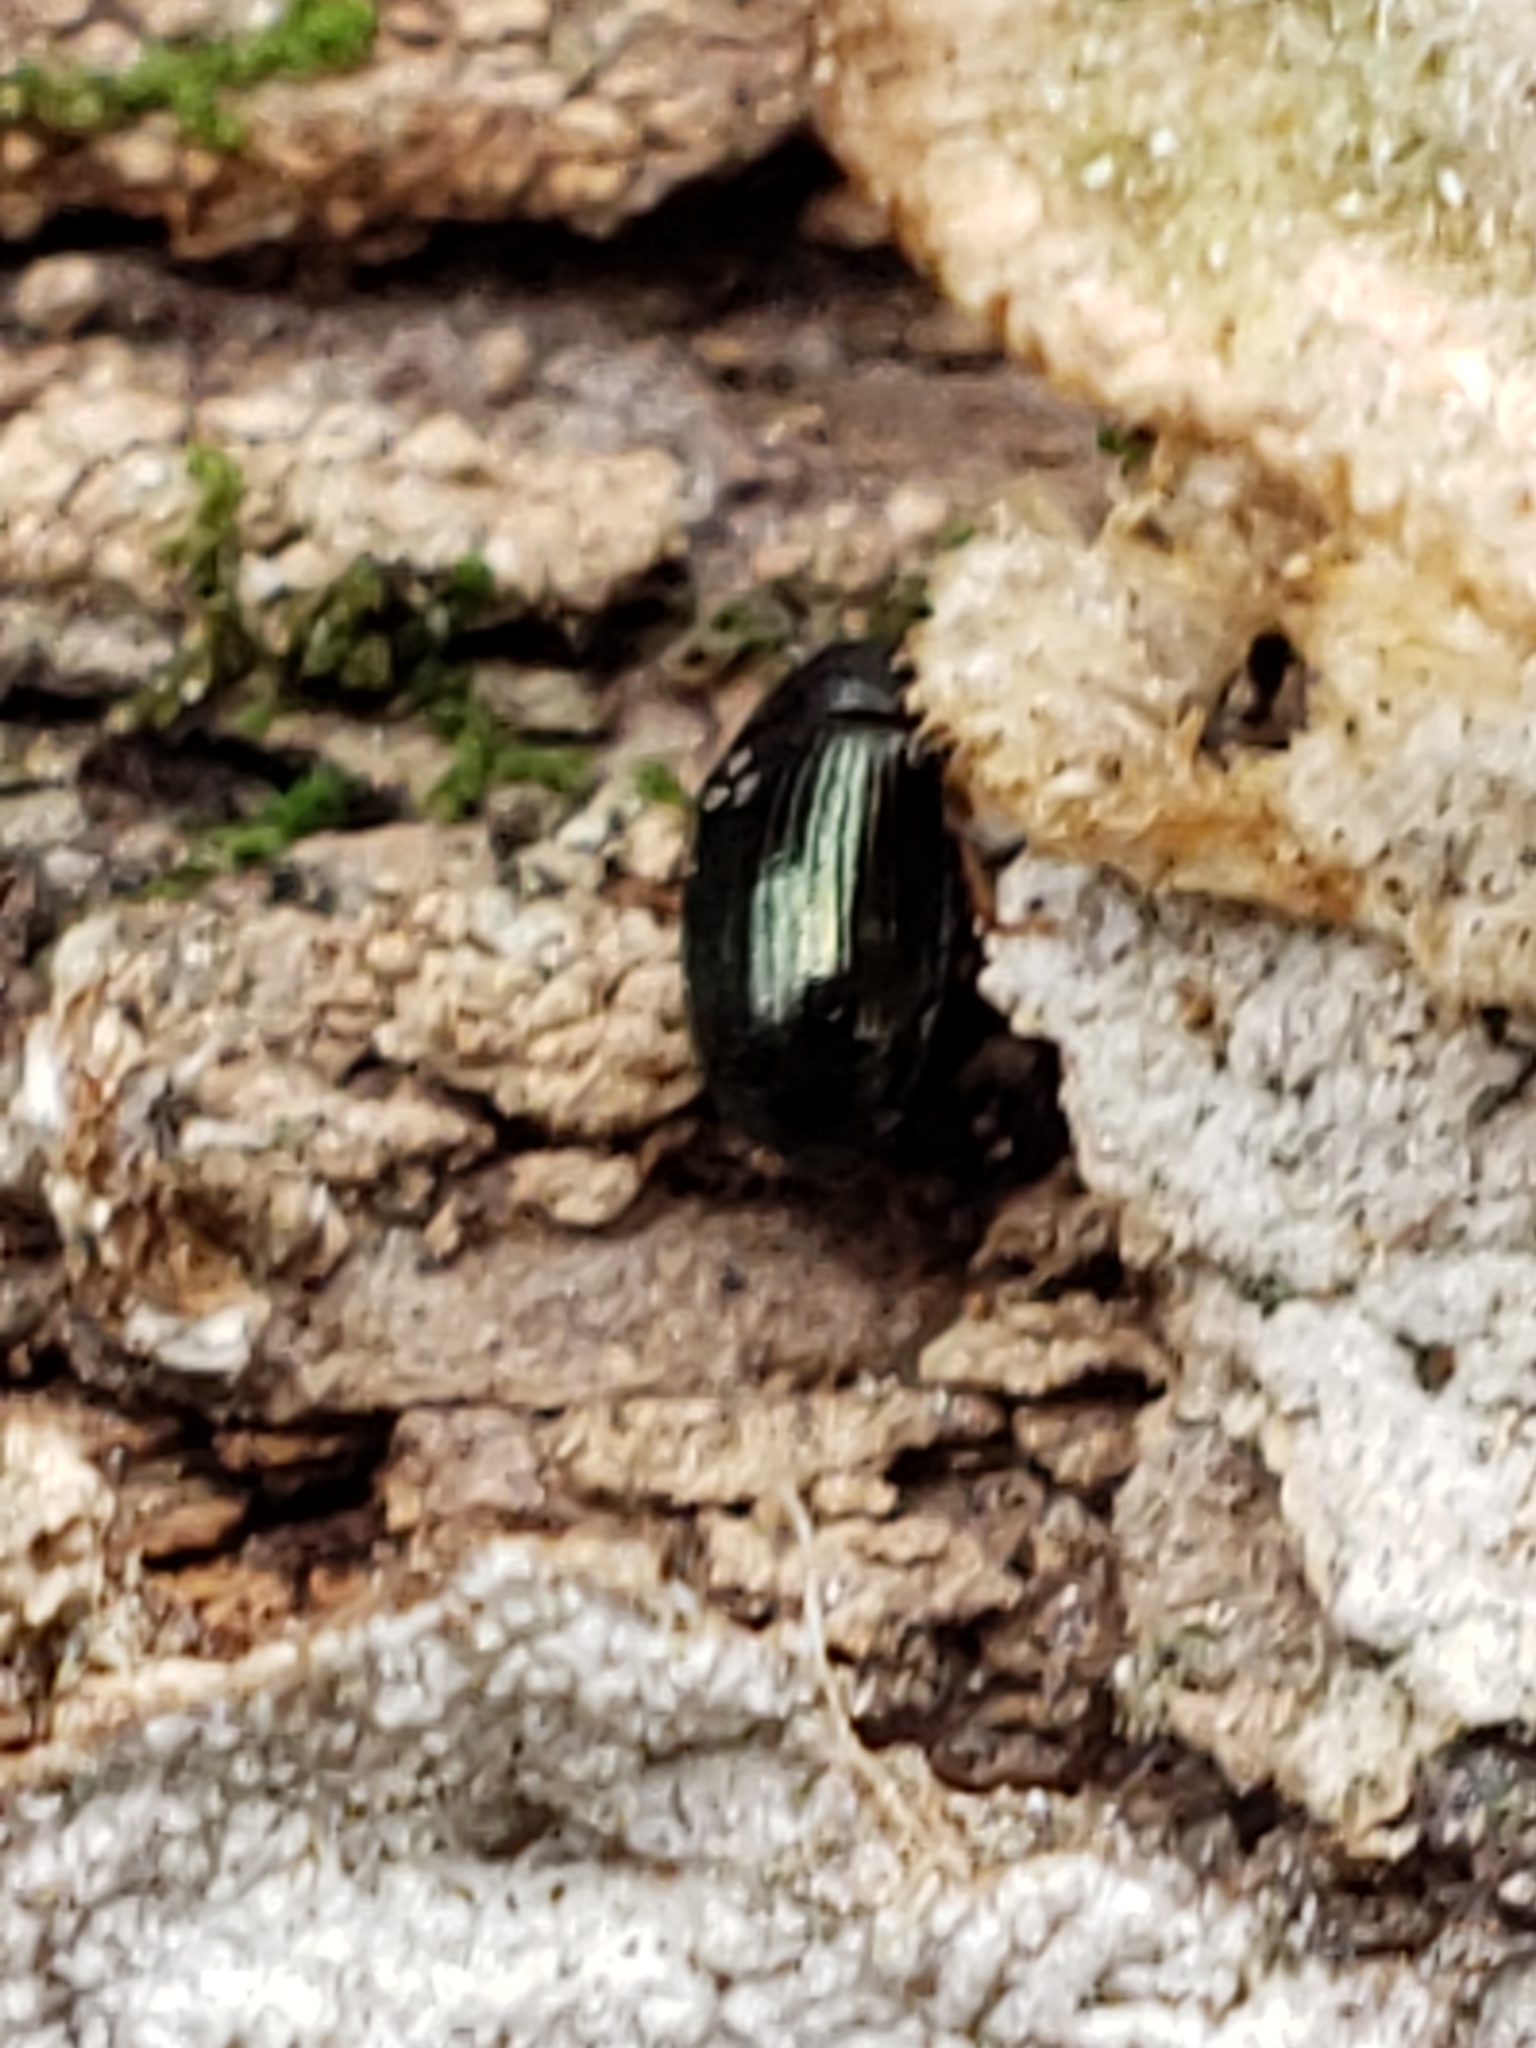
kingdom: Animalia
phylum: Arthropoda
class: Insecta
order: Coleoptera
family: Tenebrionidae
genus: Neomida
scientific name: Neomida bicornis
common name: Two-horned darkling beetle
